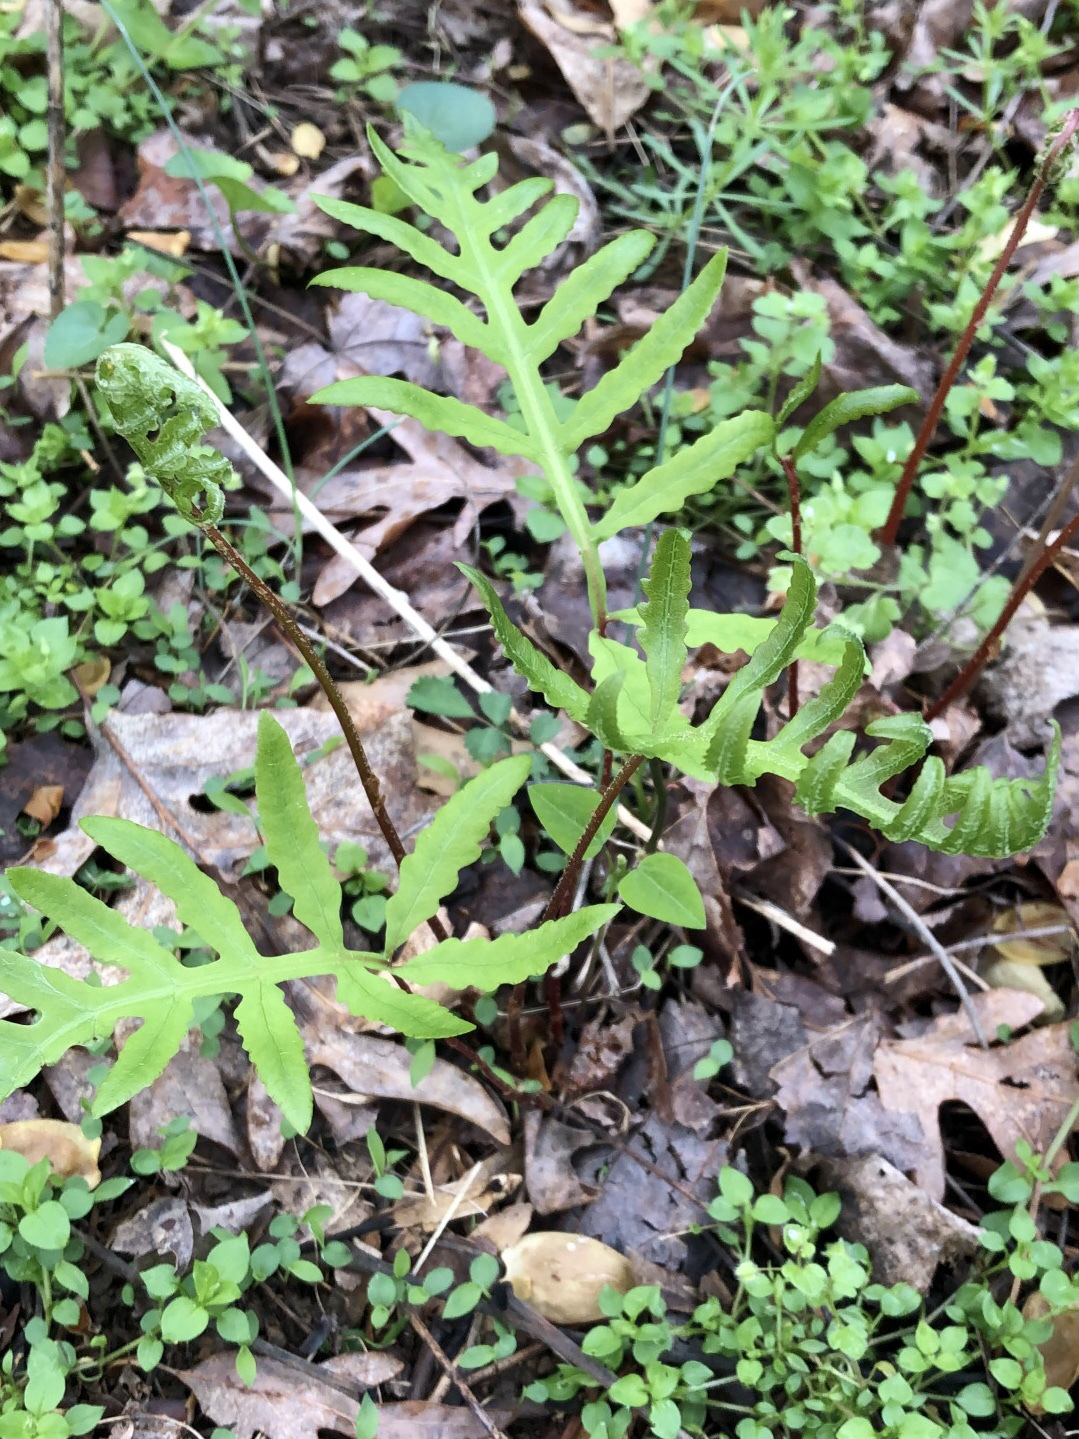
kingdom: Plantae
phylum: Tracheophyta
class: Polypodiopsida
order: Polypodiales
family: Onocleaceae
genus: Onoclea
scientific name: Onoclea sensibilis
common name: Sensitive fern
